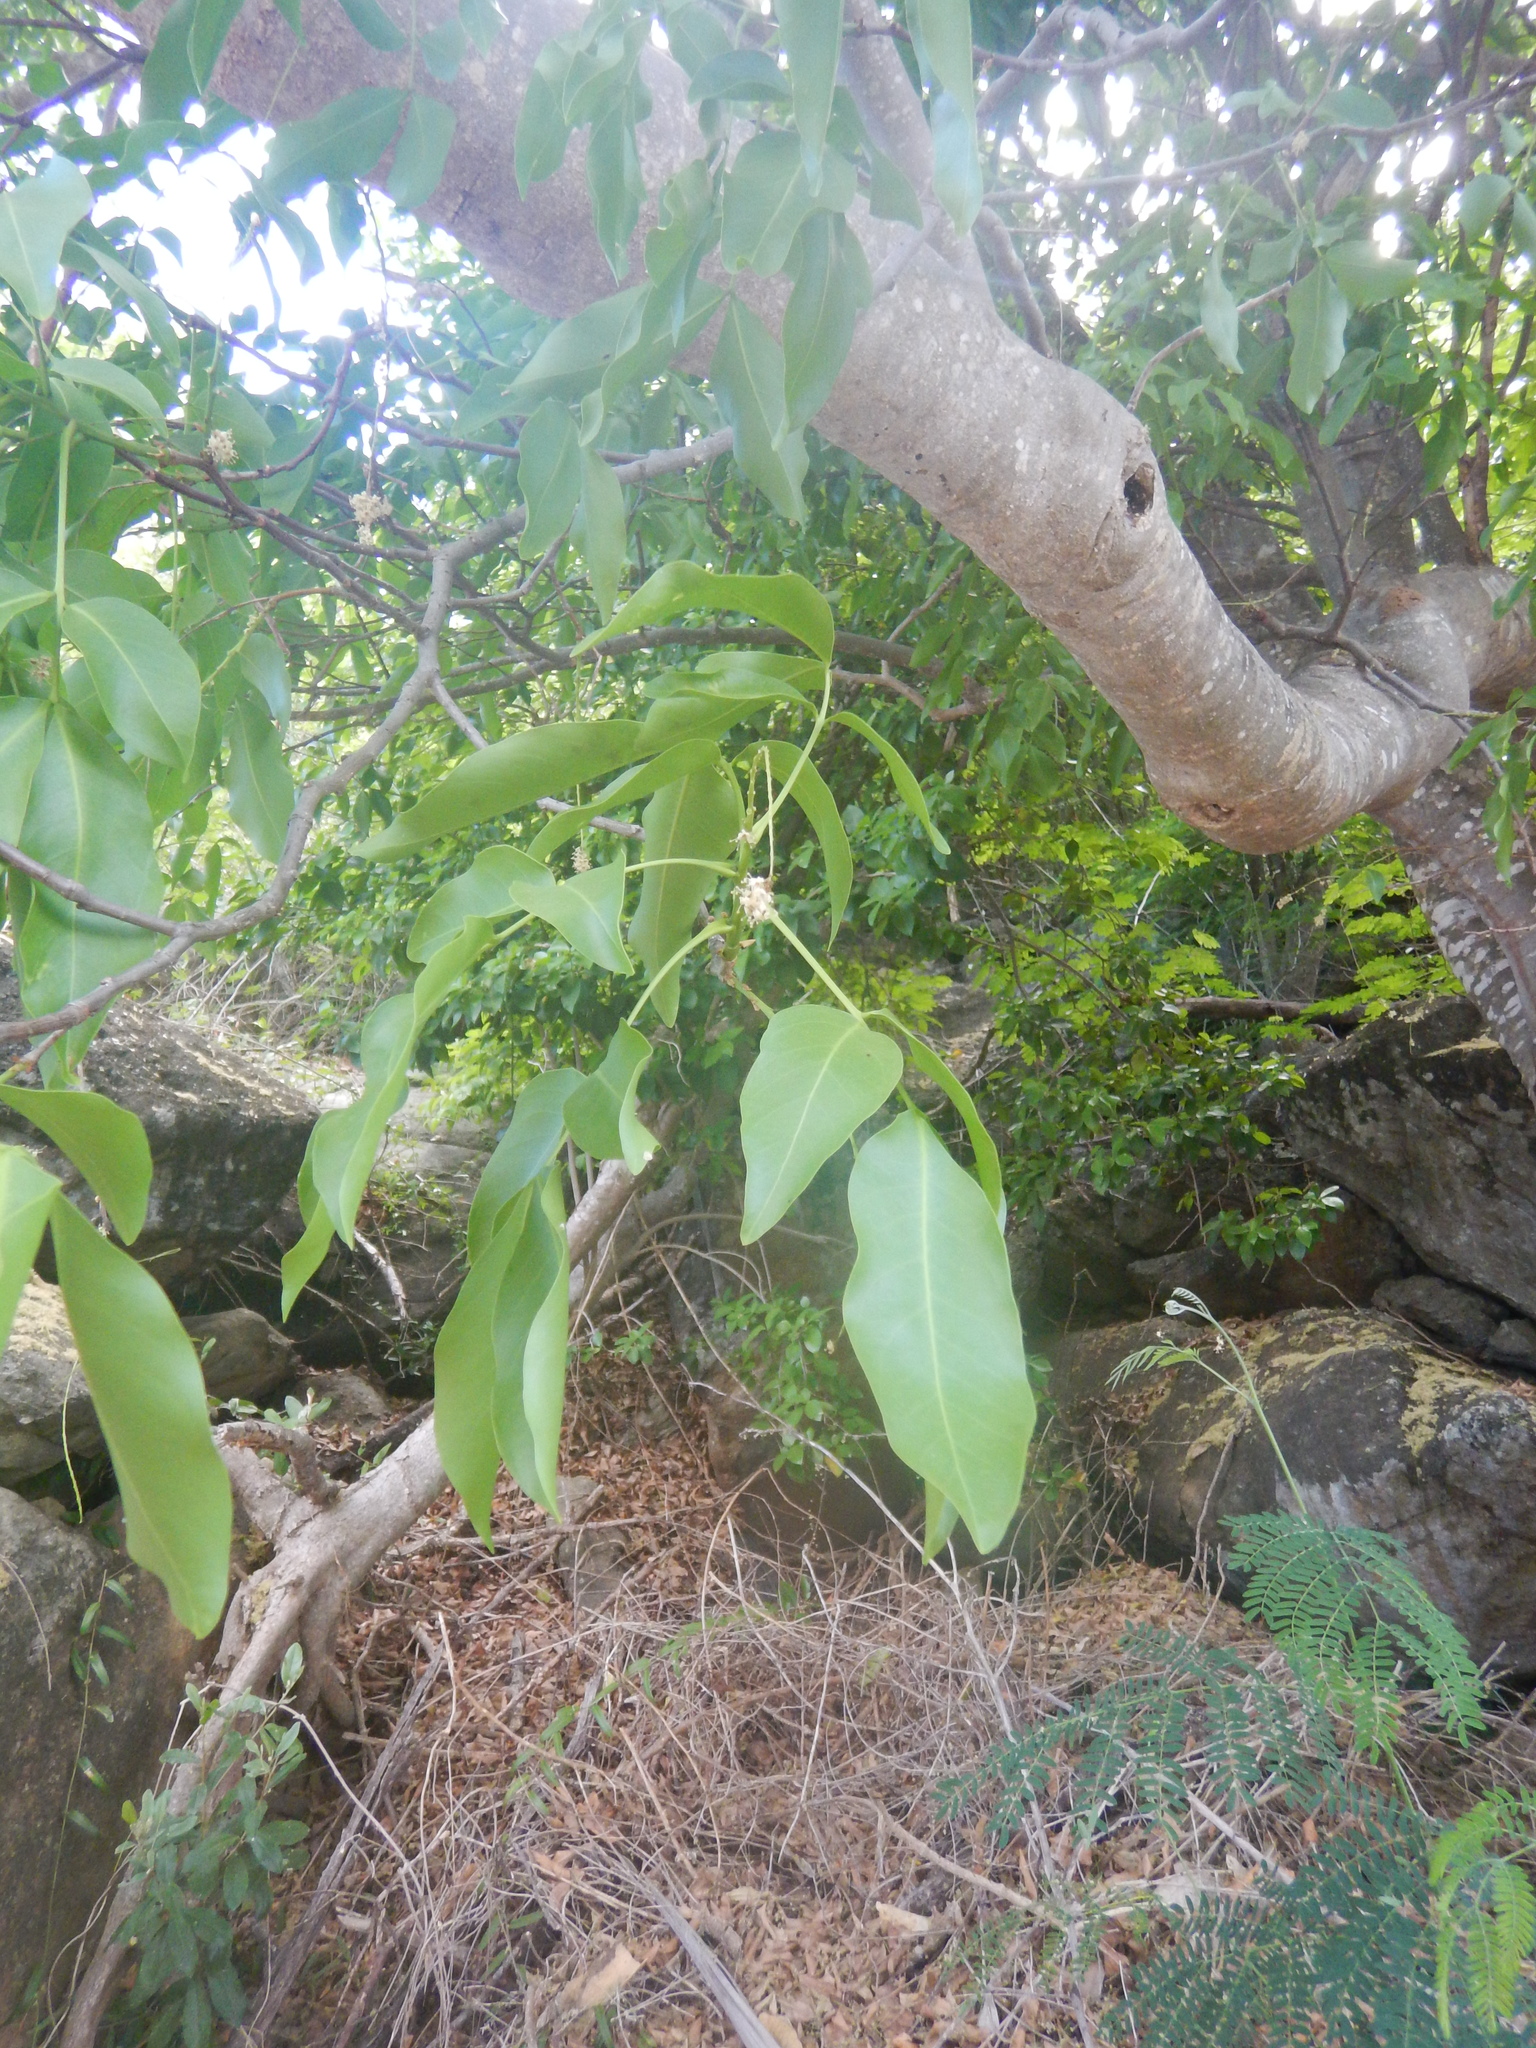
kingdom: Plantae
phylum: Tracheophyta
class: Magnoliopsida
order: Sapindales
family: Sapindaceae
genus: Melicoccus
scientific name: Melicoccus bijugatus
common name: Spanish lime
